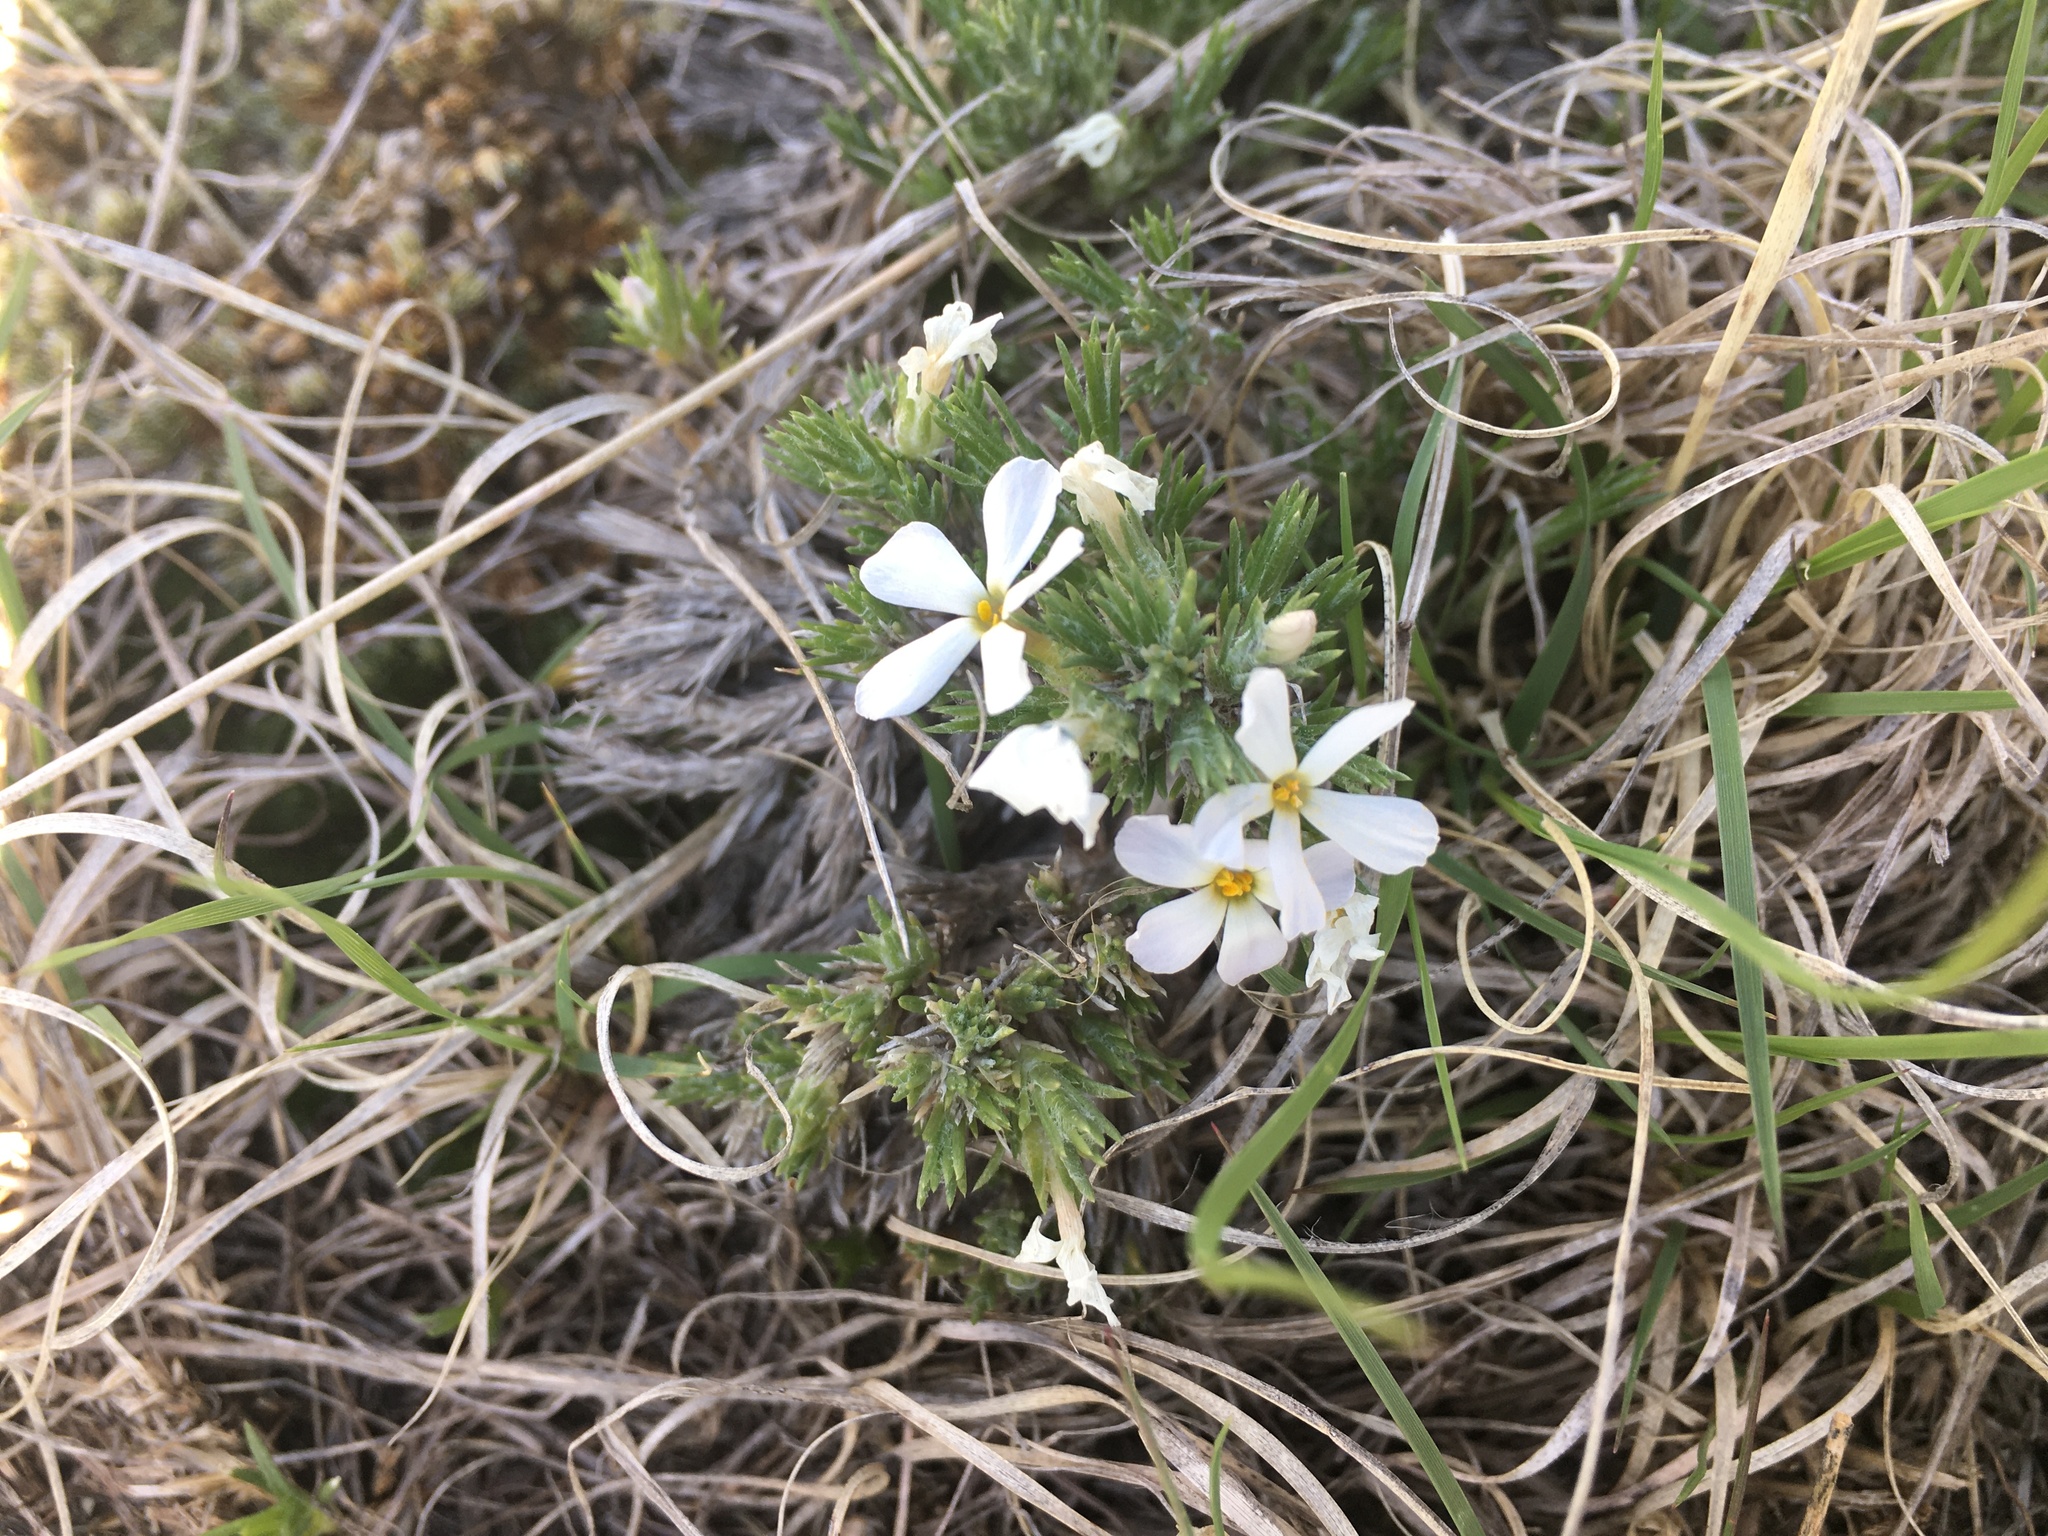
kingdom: Plantae
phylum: Tracheophyta
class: Magnoliopsida
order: Ericales
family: Polemoniaceae
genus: Phlox
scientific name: Phlox hoodii
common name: Moss phlox
